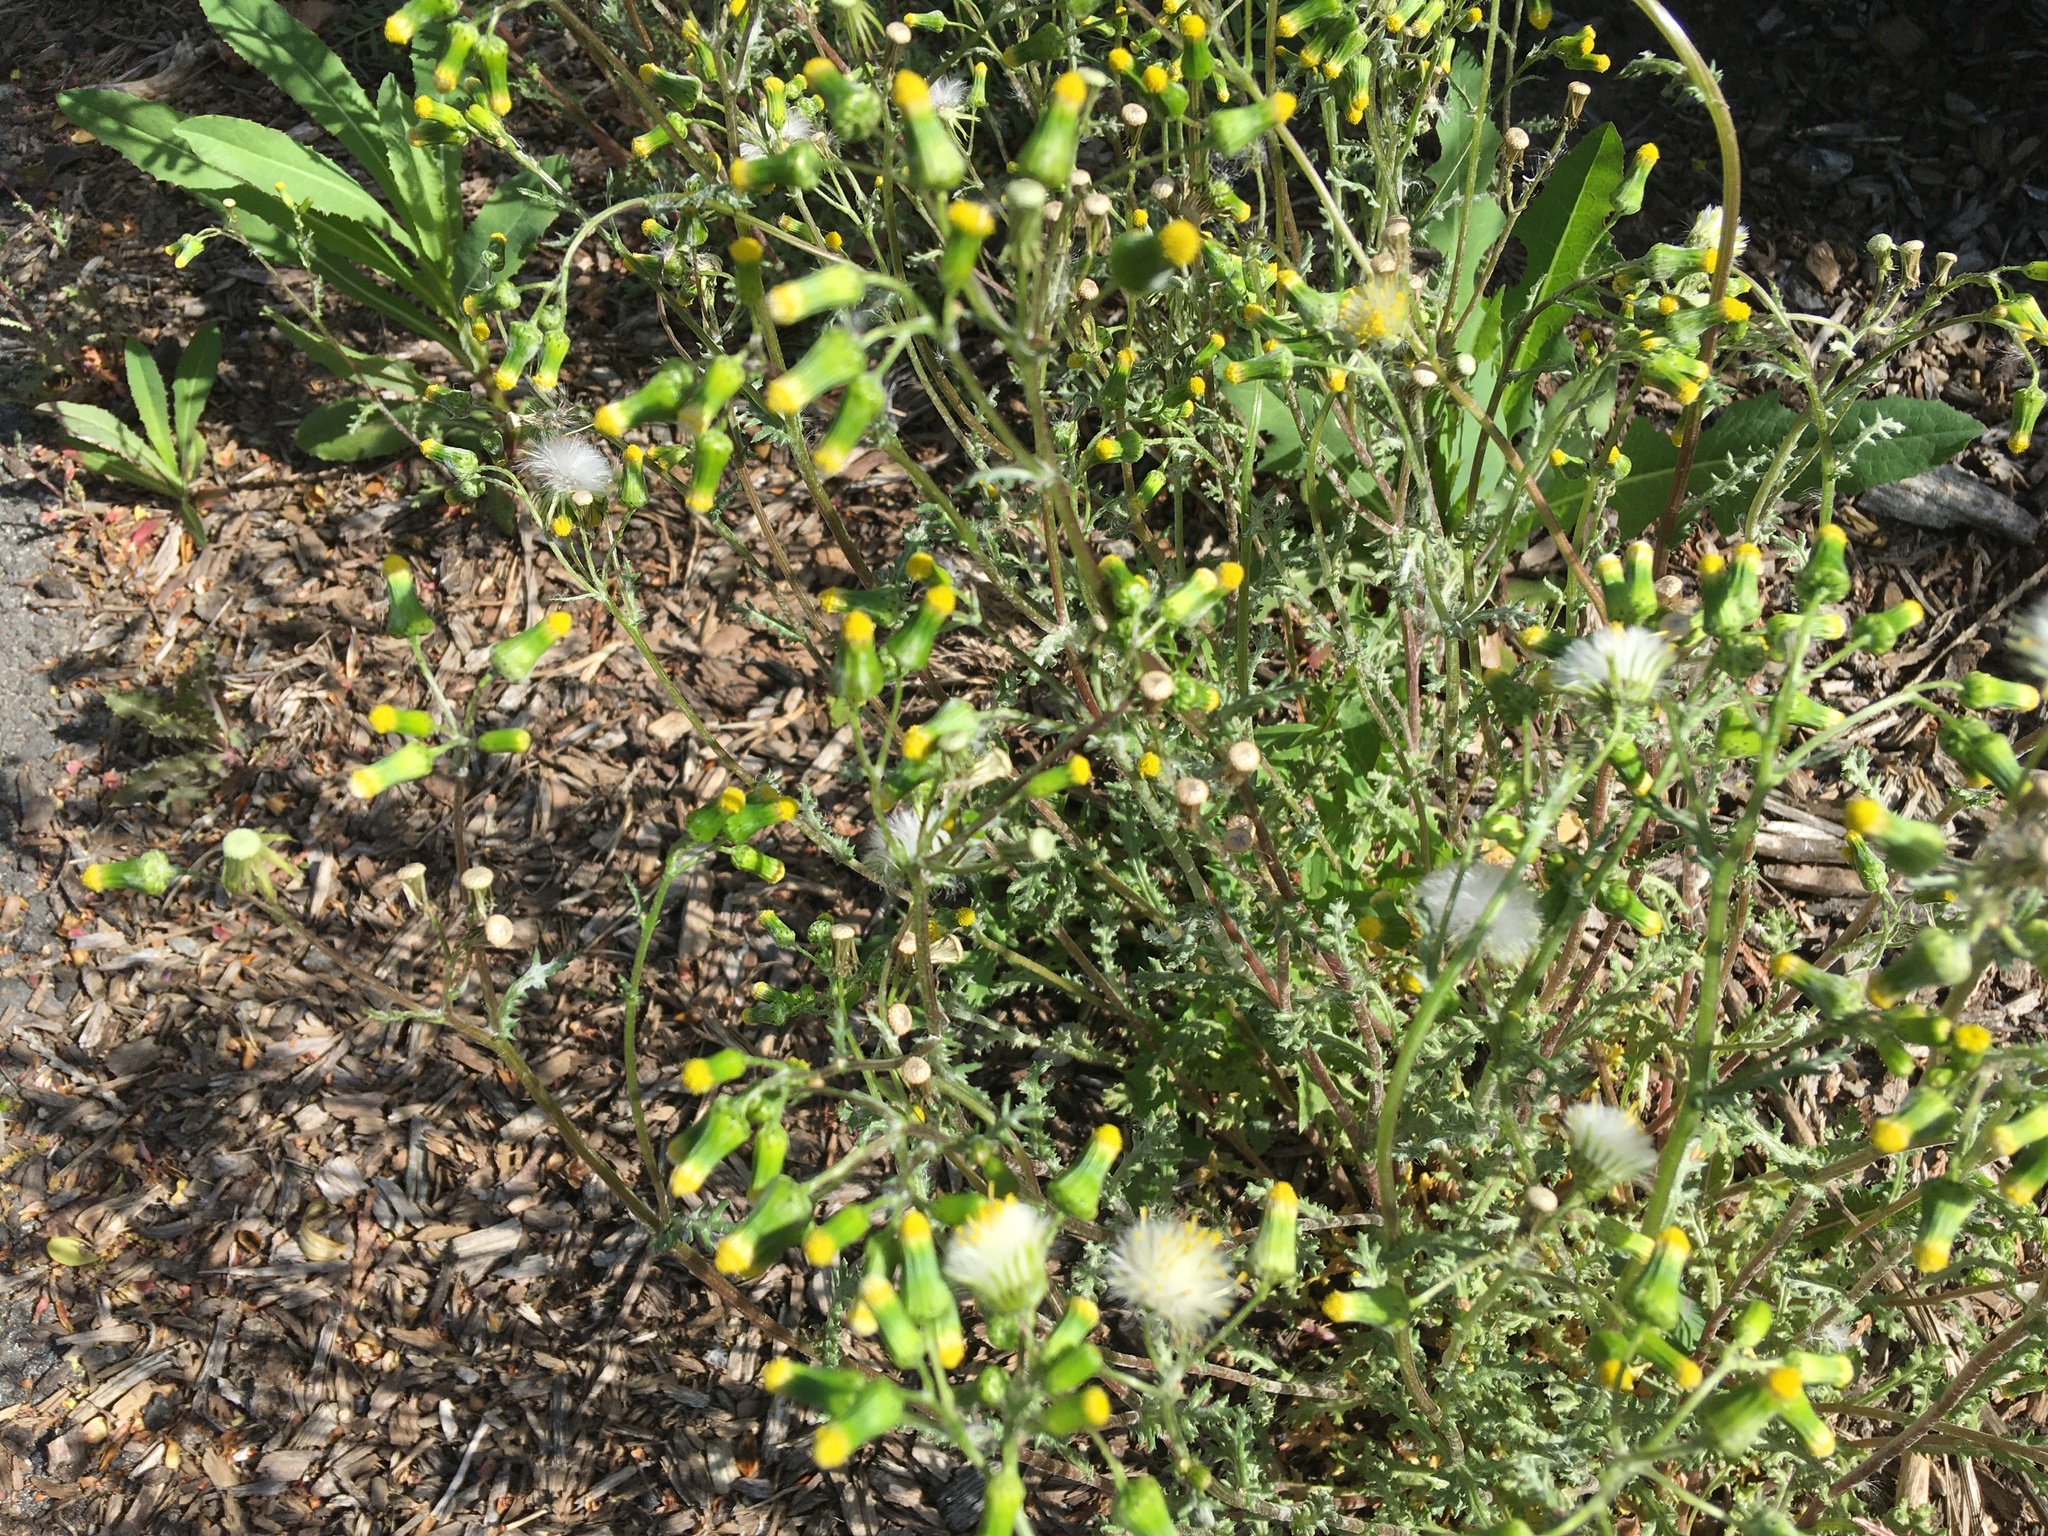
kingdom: Plantae
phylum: Tracheophyta
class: Magnoliopsida
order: Asterales
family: Asteraceae
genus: Senecio
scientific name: Senecio vulgaris
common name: Old-man-in-the-spring
